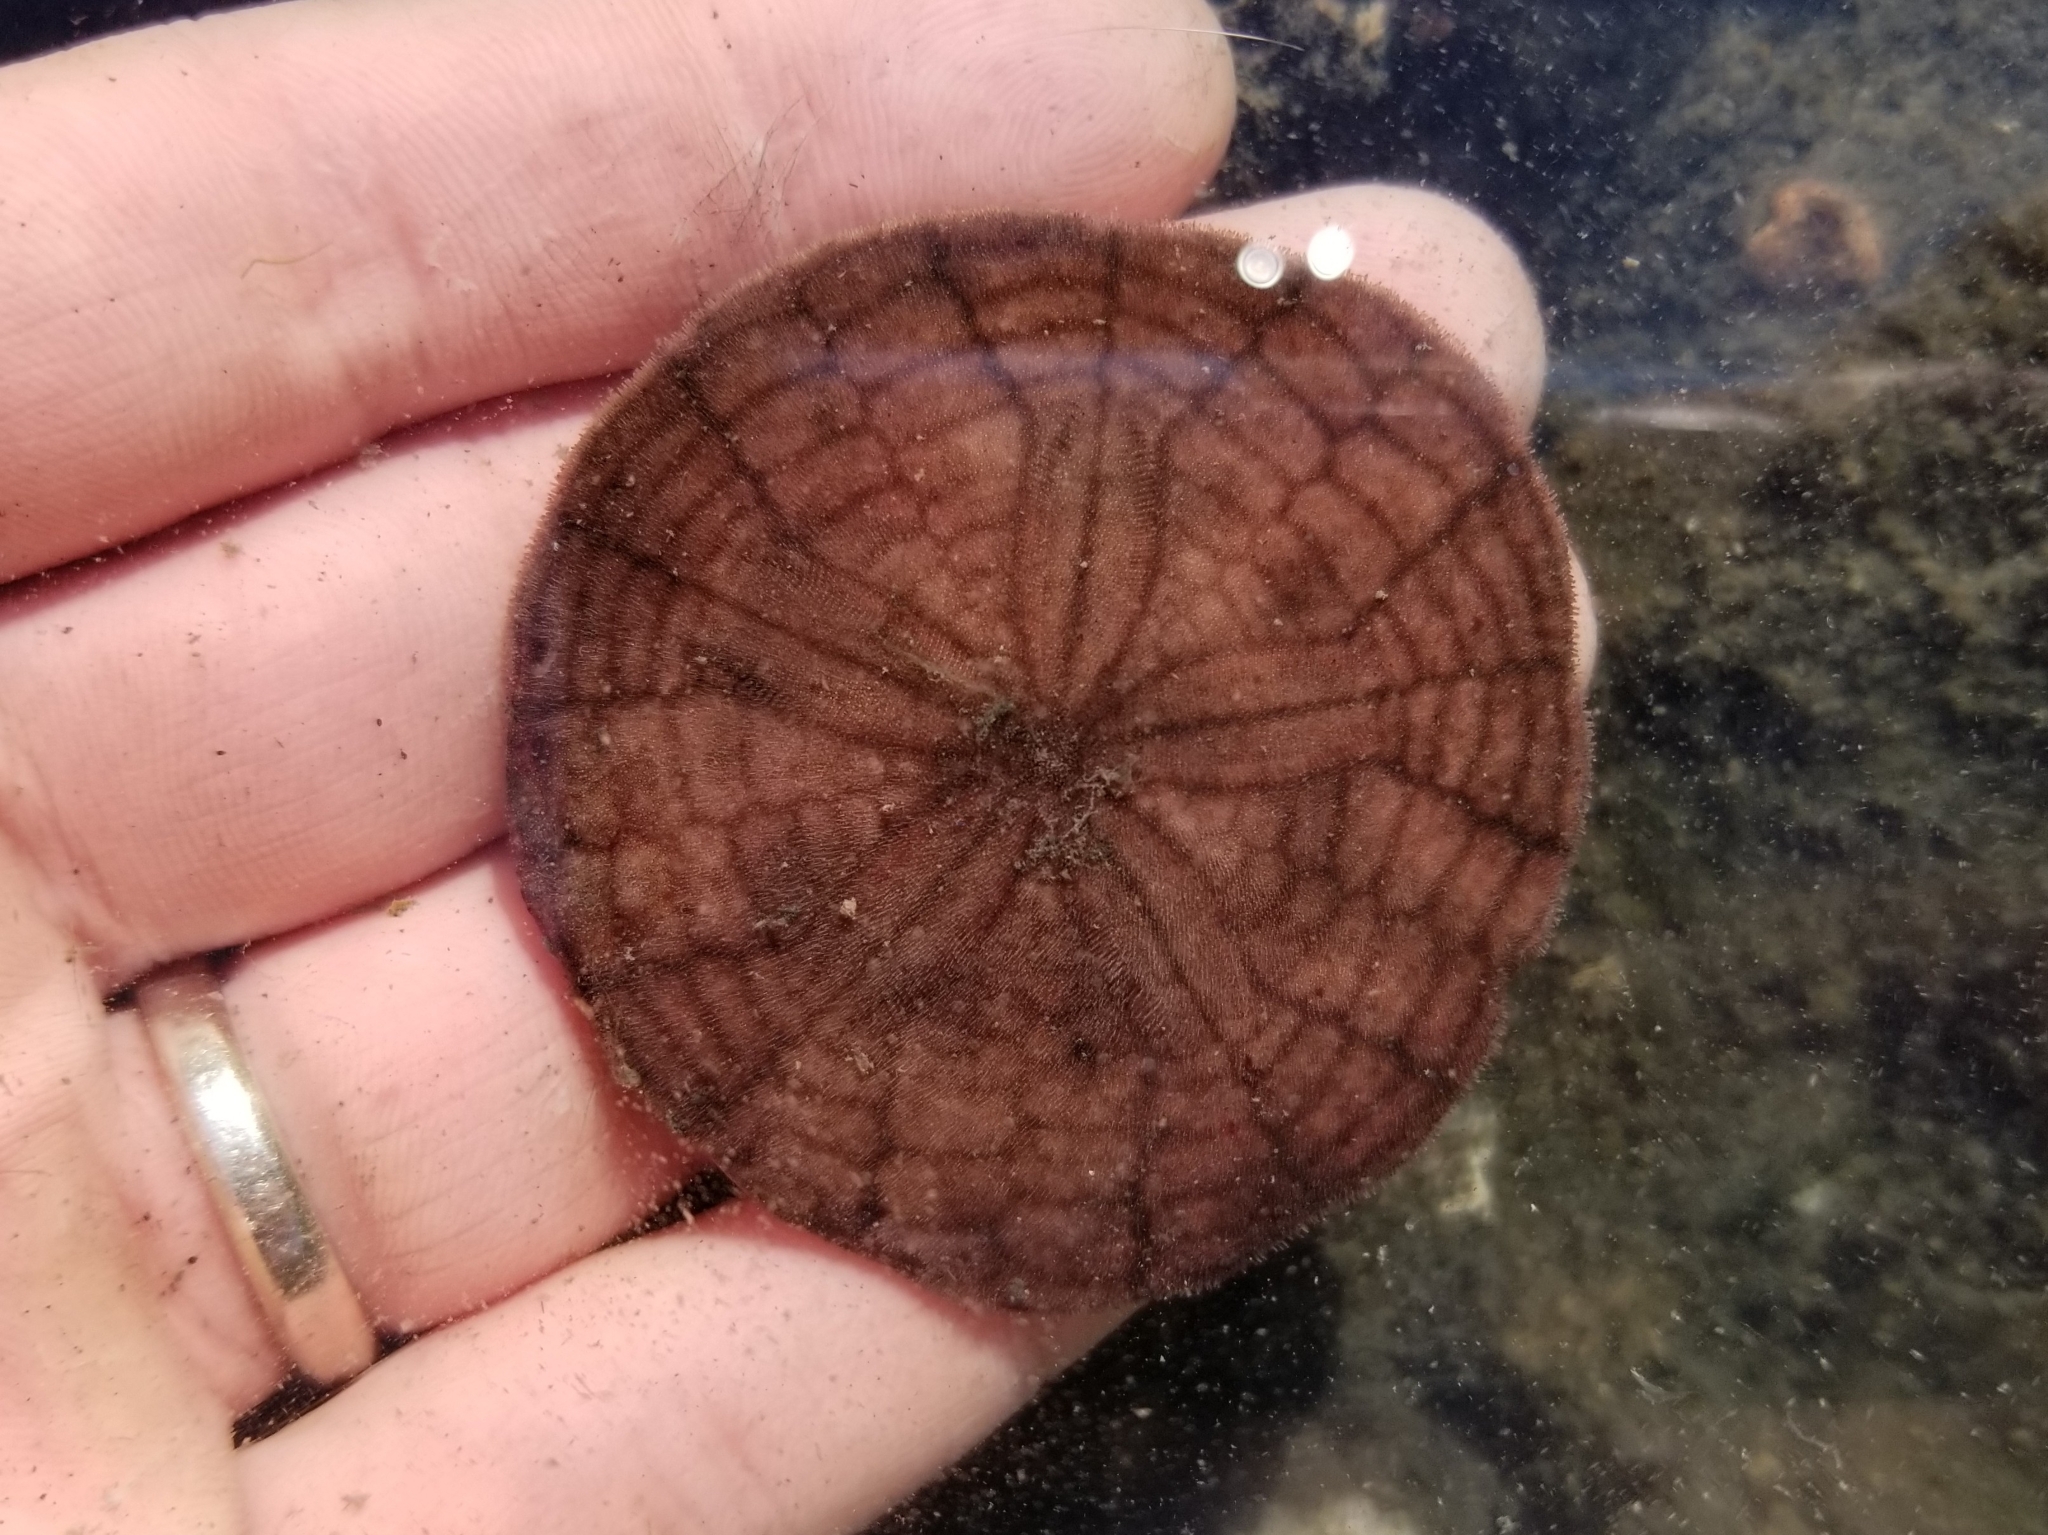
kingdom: Animalia
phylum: Echinodermata
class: Echinoidea
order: Echinolampadacea
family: Echinarachniidae
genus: Echinarachnius
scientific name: Echinarachnius parma
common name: Common sand dollar
